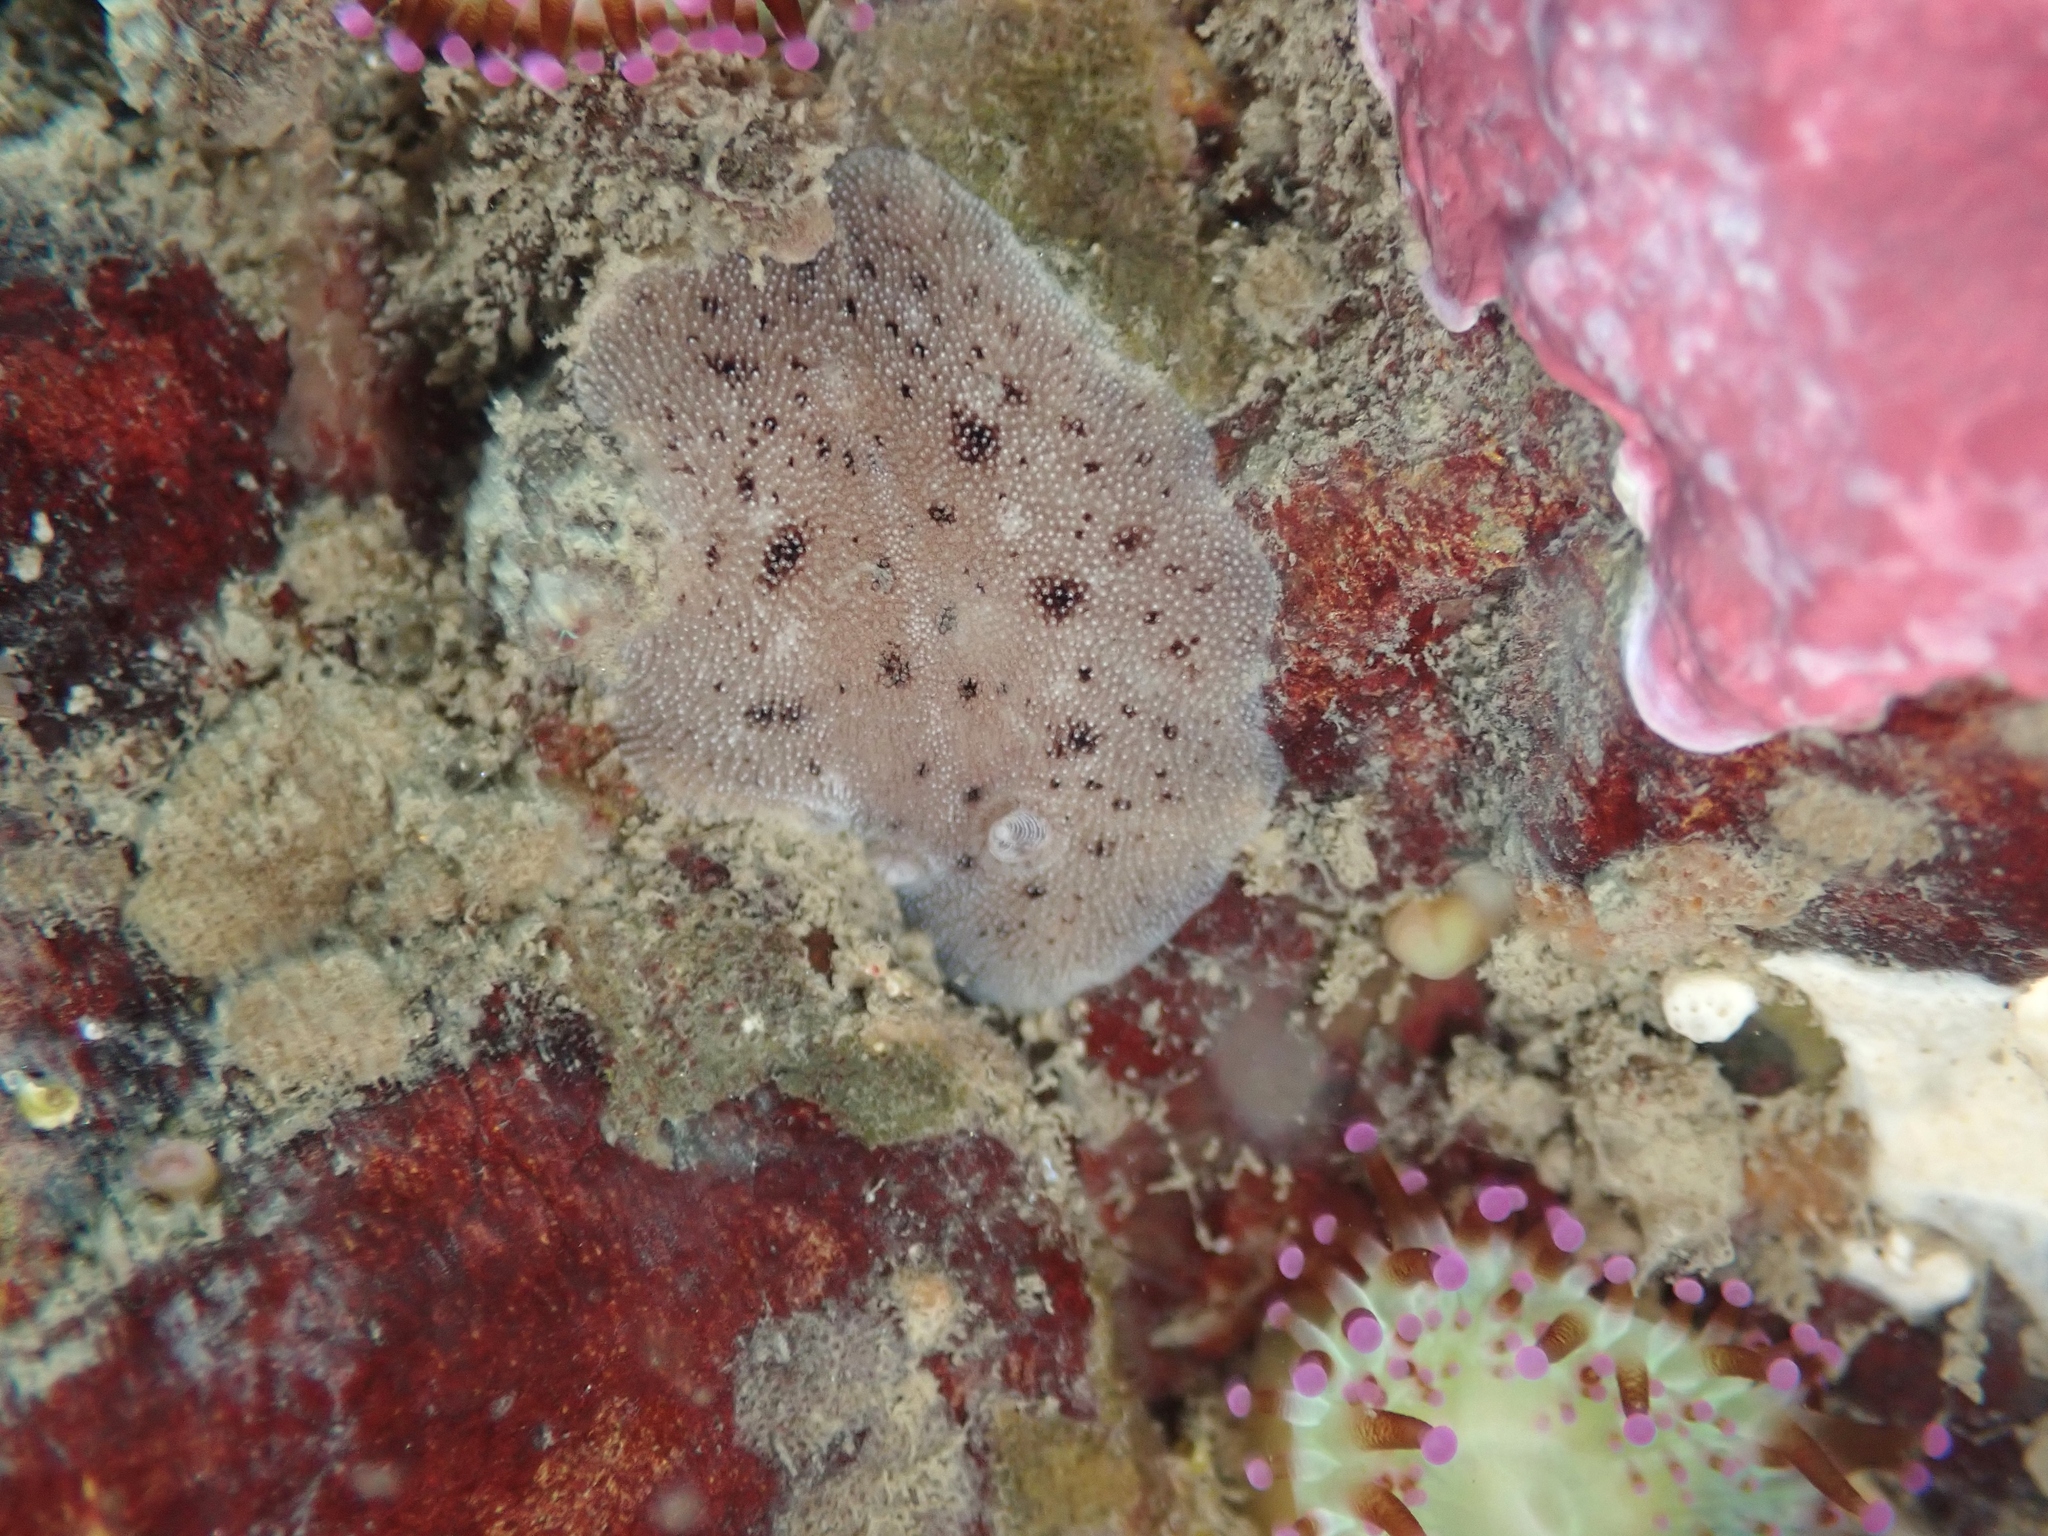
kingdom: Animalia
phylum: Mollusca
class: Gastropoda
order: Nudibranchia
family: Discodorididae
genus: Alloiodoris
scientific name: Alloiodoris lanuginata
